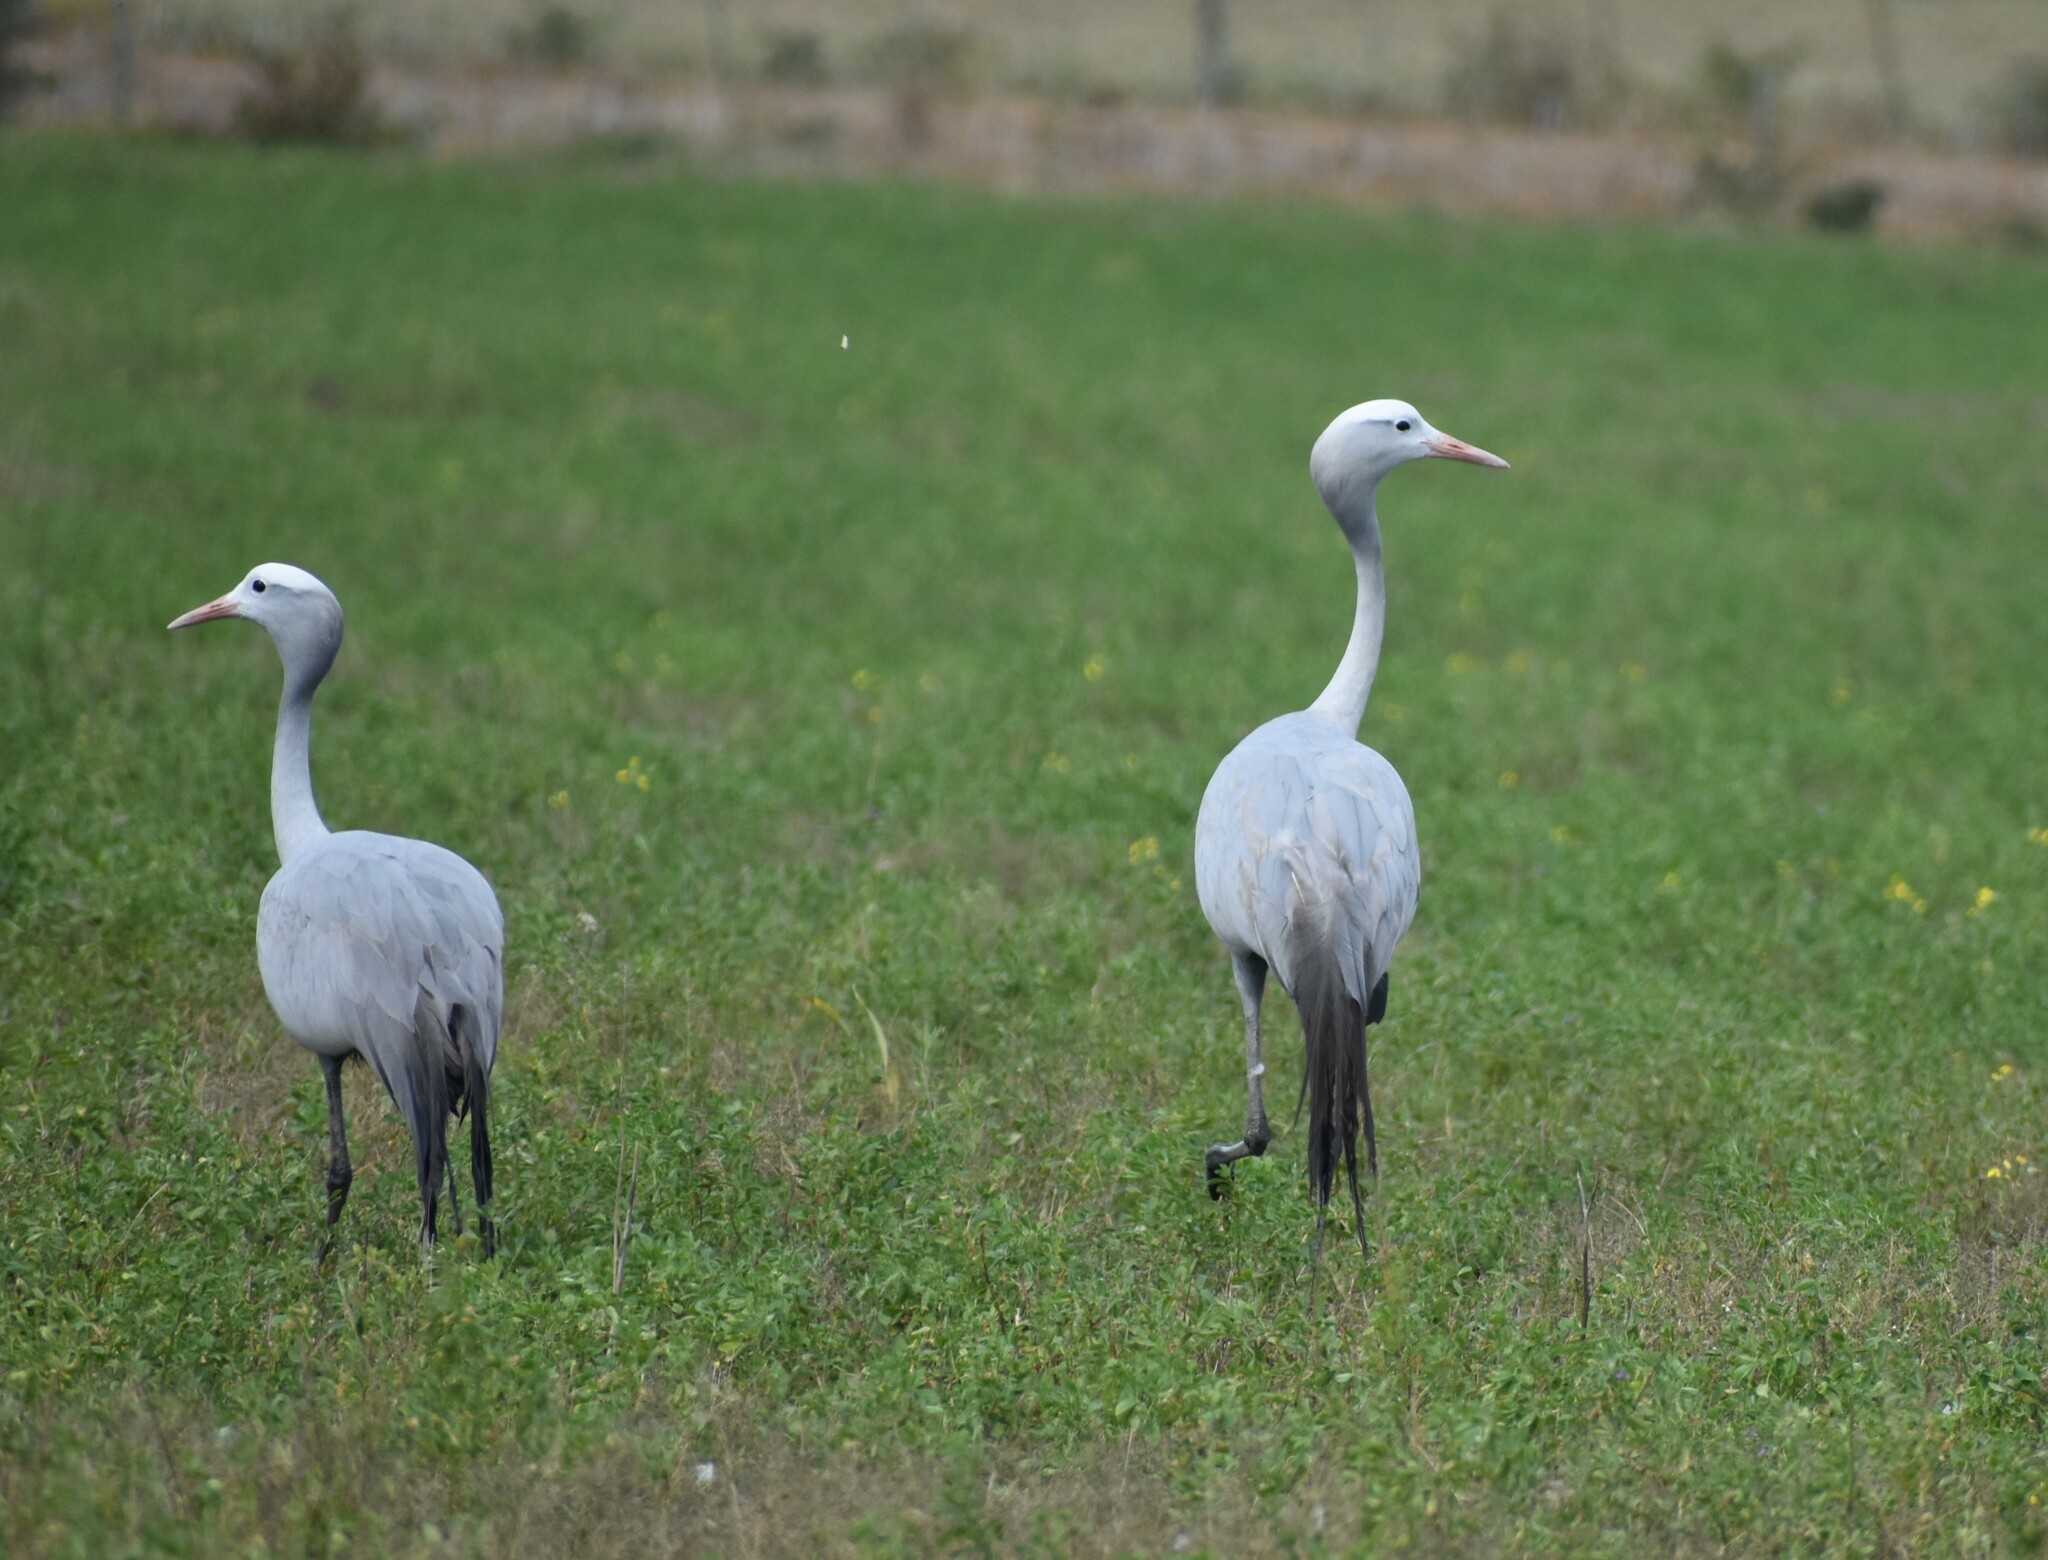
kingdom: Animalia
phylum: Chordata
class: Aves
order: Gruiformes
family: Gruidae
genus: Anthropoides
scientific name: Anthropoides paradiseus
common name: Blue crane
